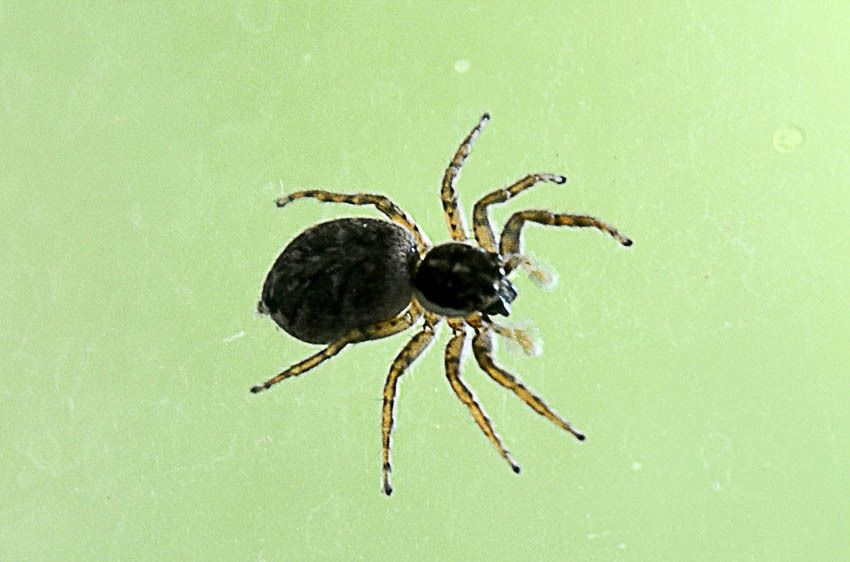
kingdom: Animalia
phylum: Arthropoda
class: Arachnida
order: Araneae
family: Salticidae
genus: Menemerus
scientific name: Menemerus semilimbatus
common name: Jumping spider
